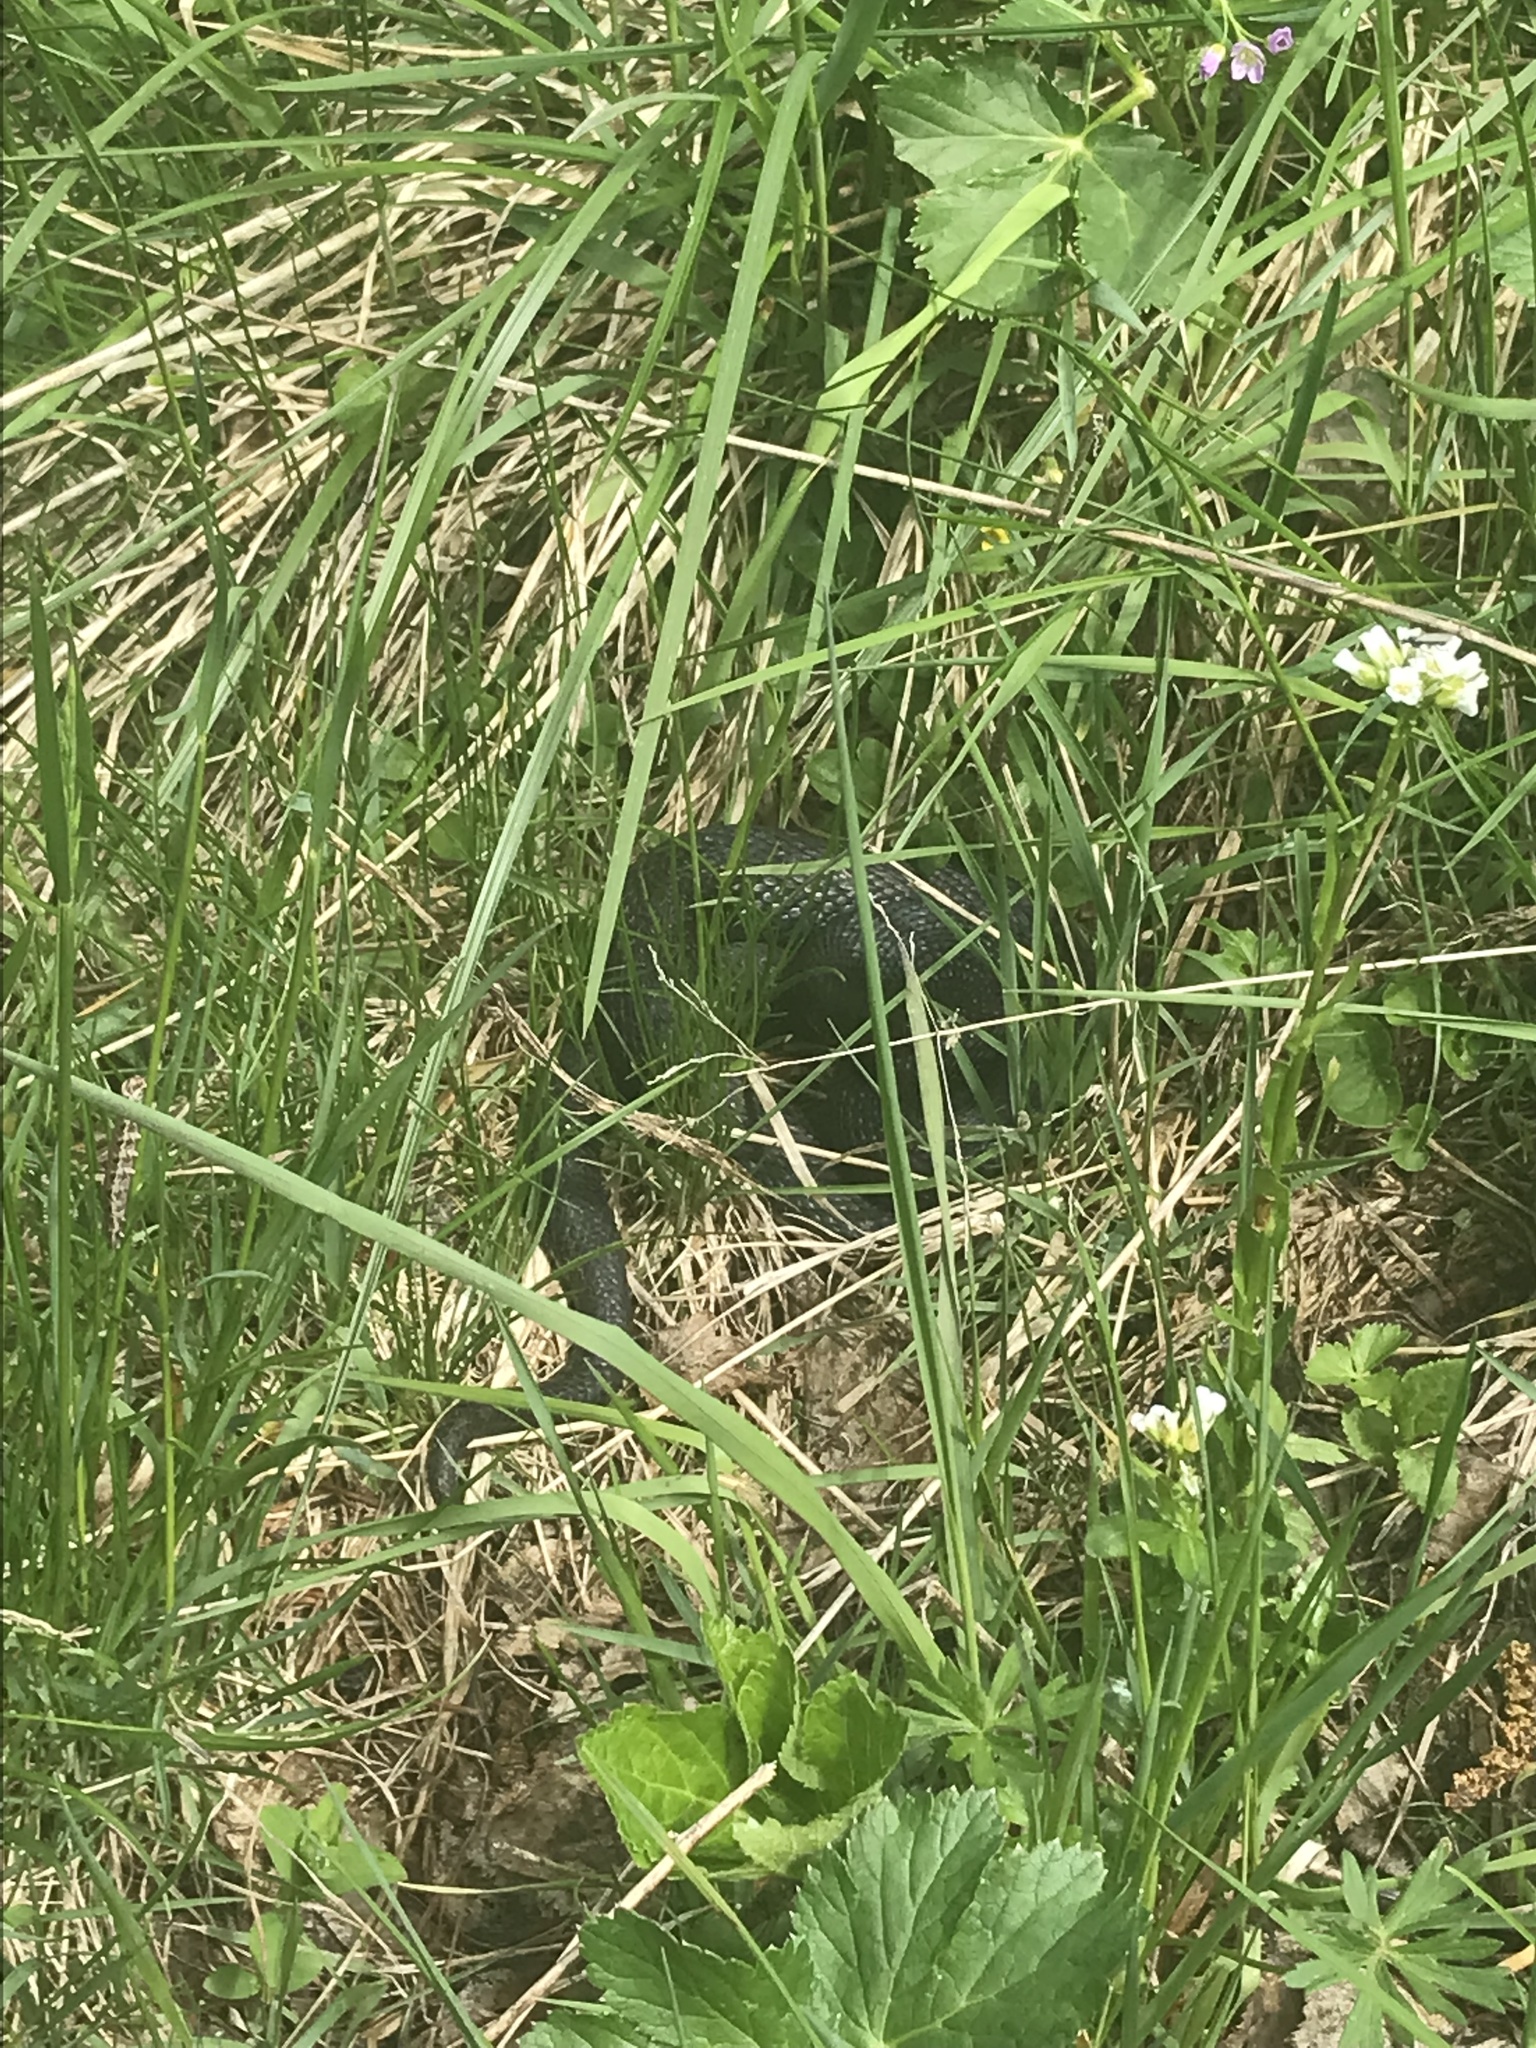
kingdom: Animalia
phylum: Chordata
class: Squamata
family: Viperidae
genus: Vipera
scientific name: Vipera berus
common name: Adder
